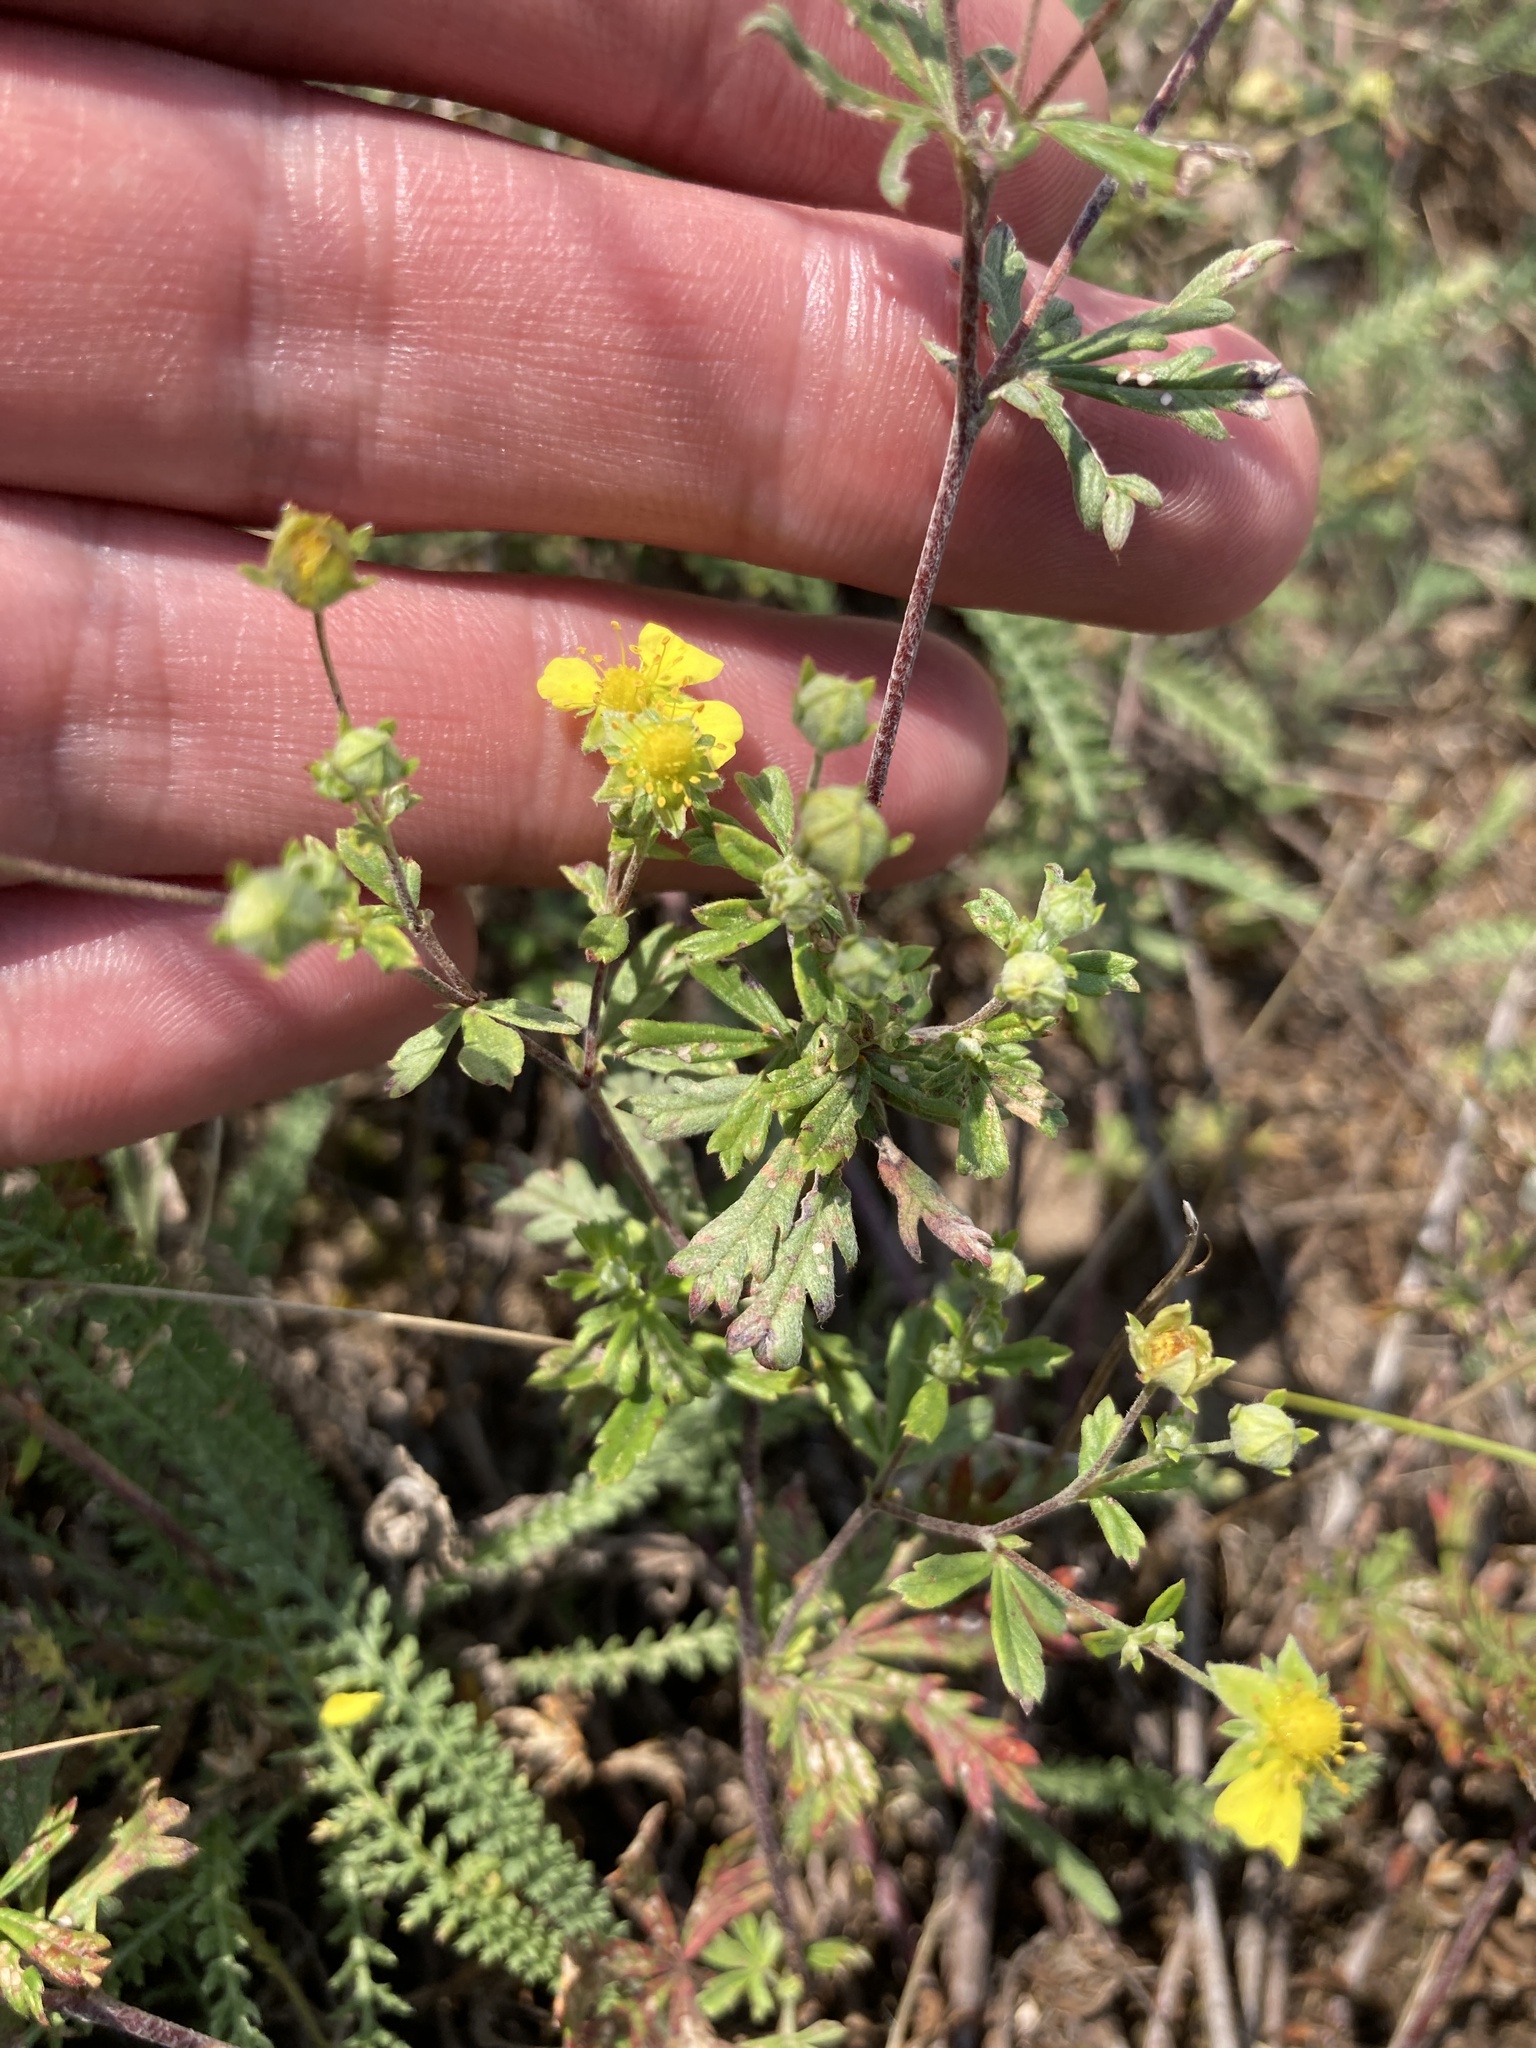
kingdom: Plantae
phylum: Tracheophyta
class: Magnoliopsida
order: Rosales
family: Rosaceae
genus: Potentilla
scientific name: Potentilla argentea
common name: Hoary cinquefoil
